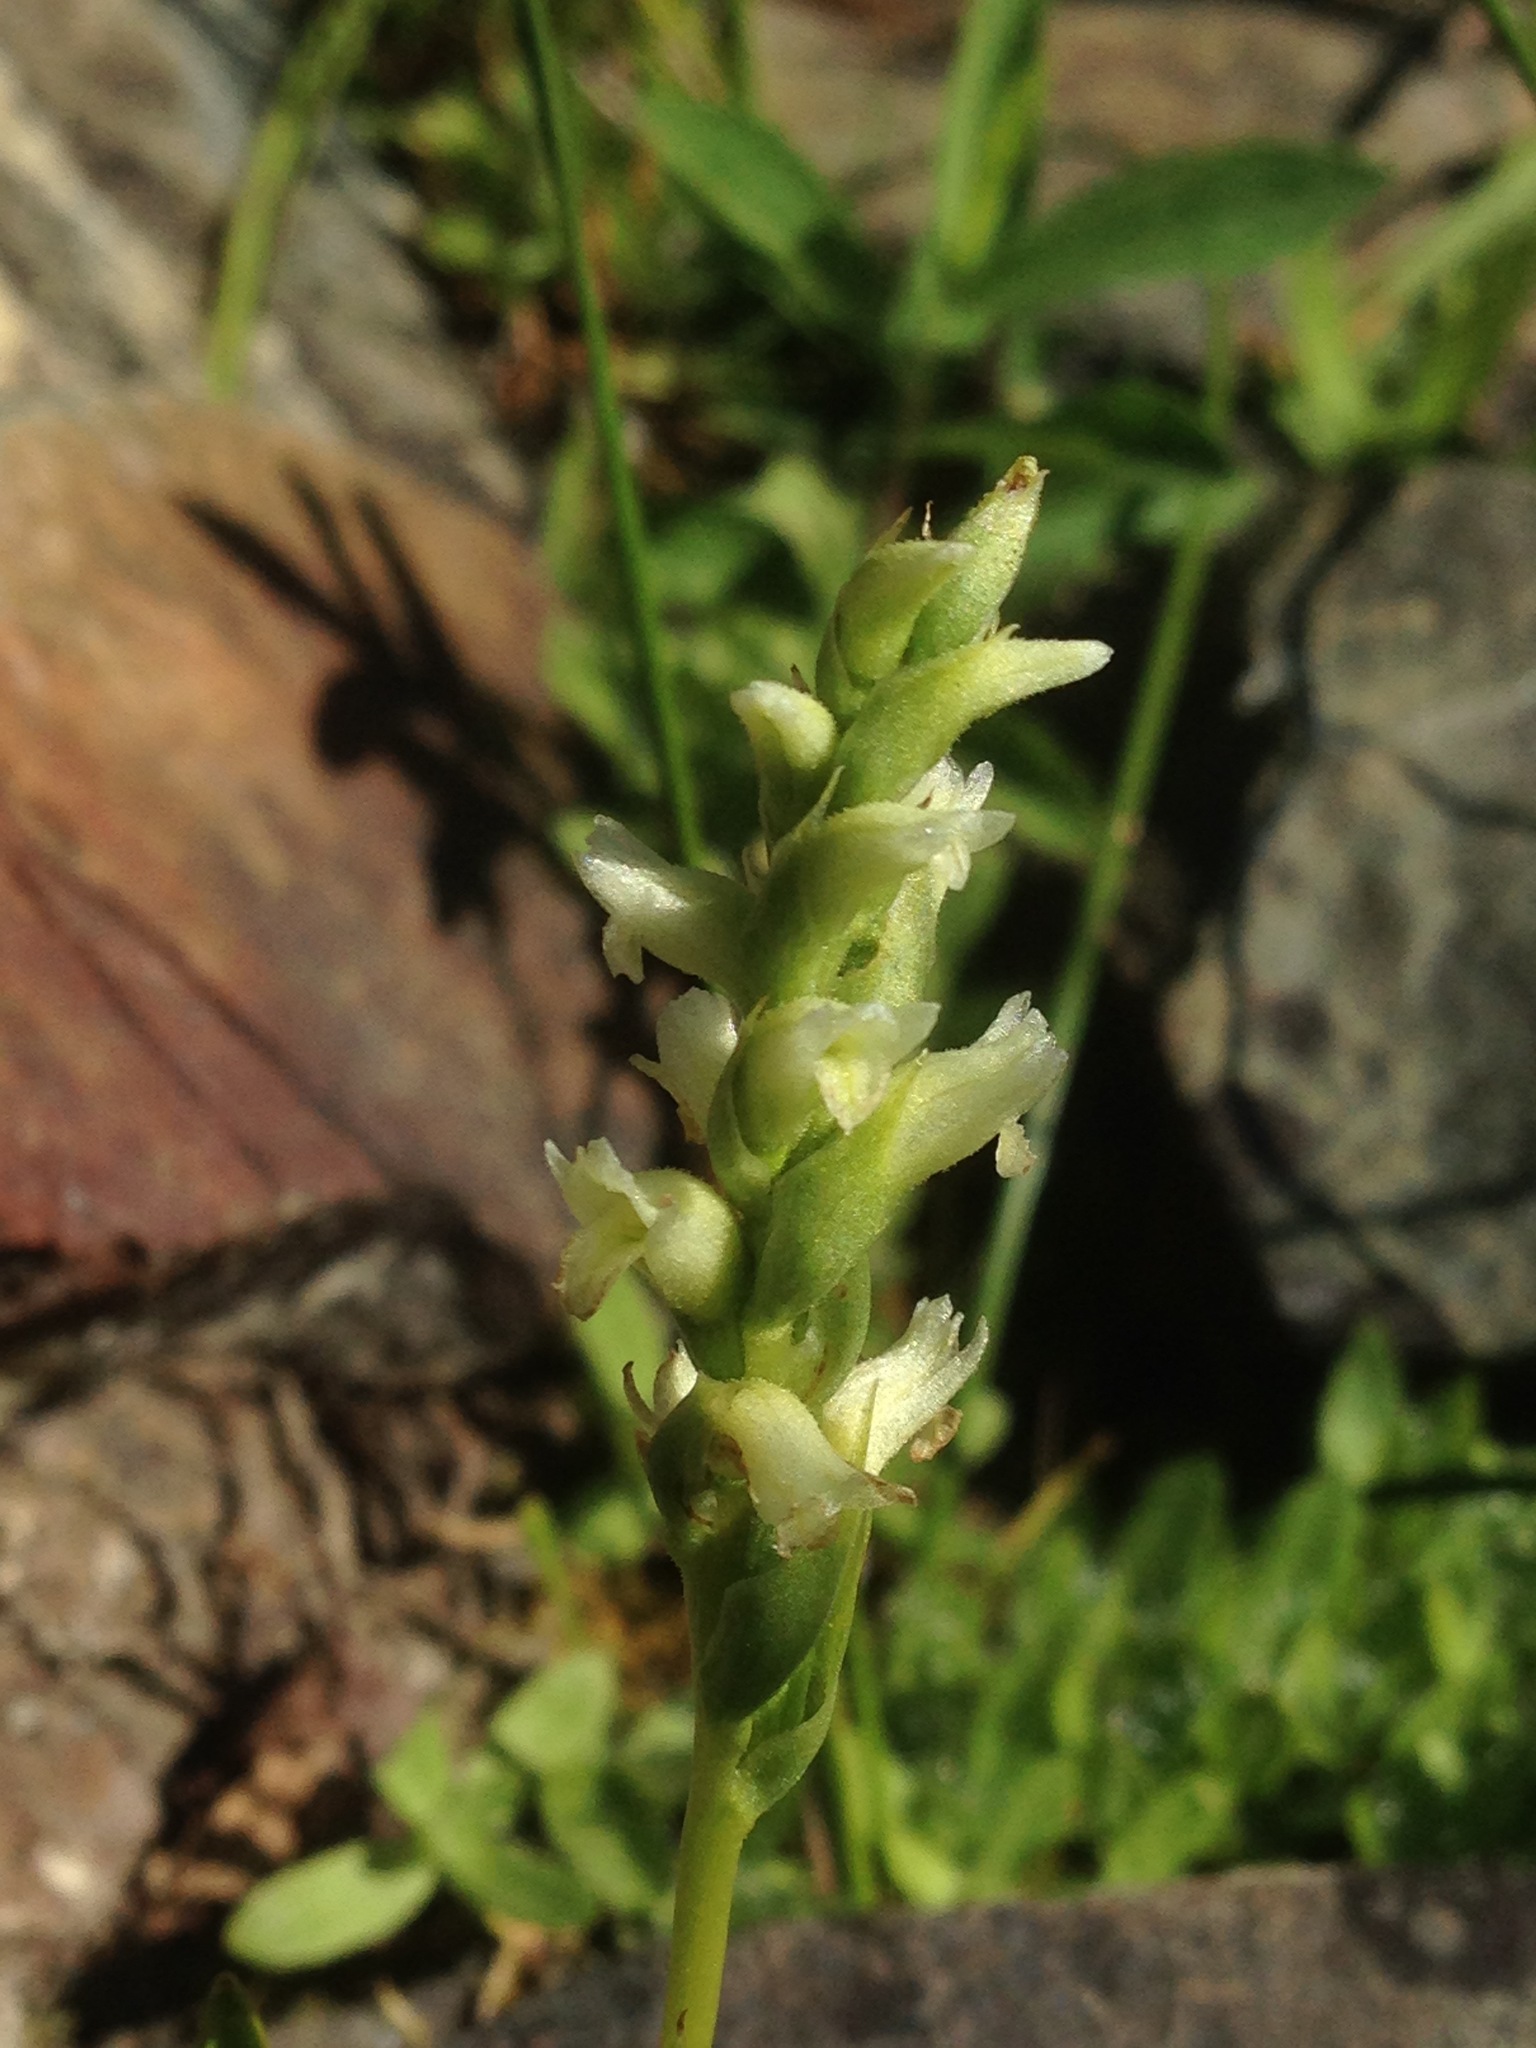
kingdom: Plantae
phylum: Tracheophyta
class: Liliopsida
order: Asparagales
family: Orchidaceae
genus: Spiranthes
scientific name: Spiranthes romanzoffiana
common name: Irish lady's-tresses
